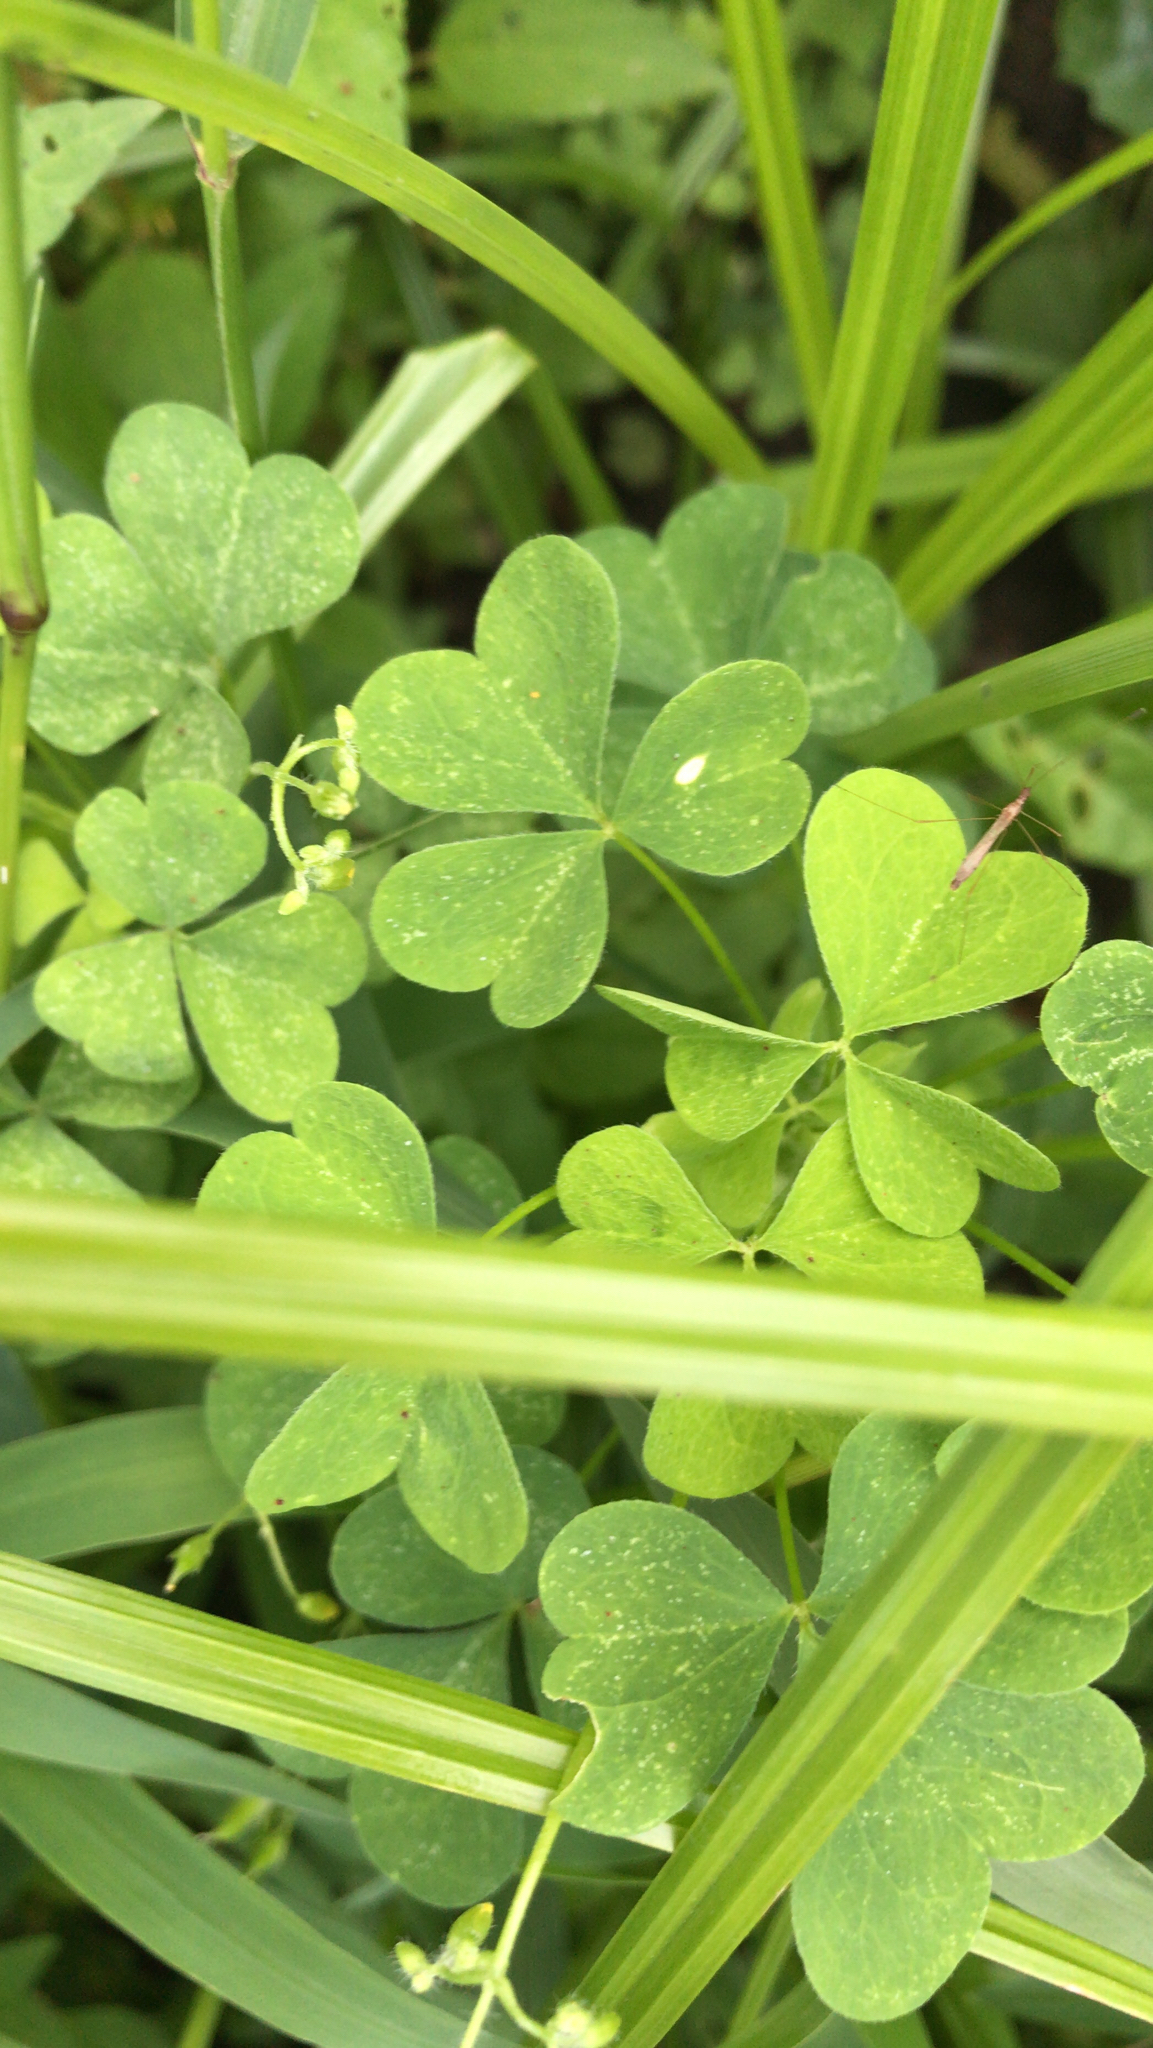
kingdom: Plantae
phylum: Tracheophyta
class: Magnoliopsida
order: Oxalidales
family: Oxalidaceae
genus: Oxalis
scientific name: Oxalis stricta
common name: Upright yellow-sorrel
